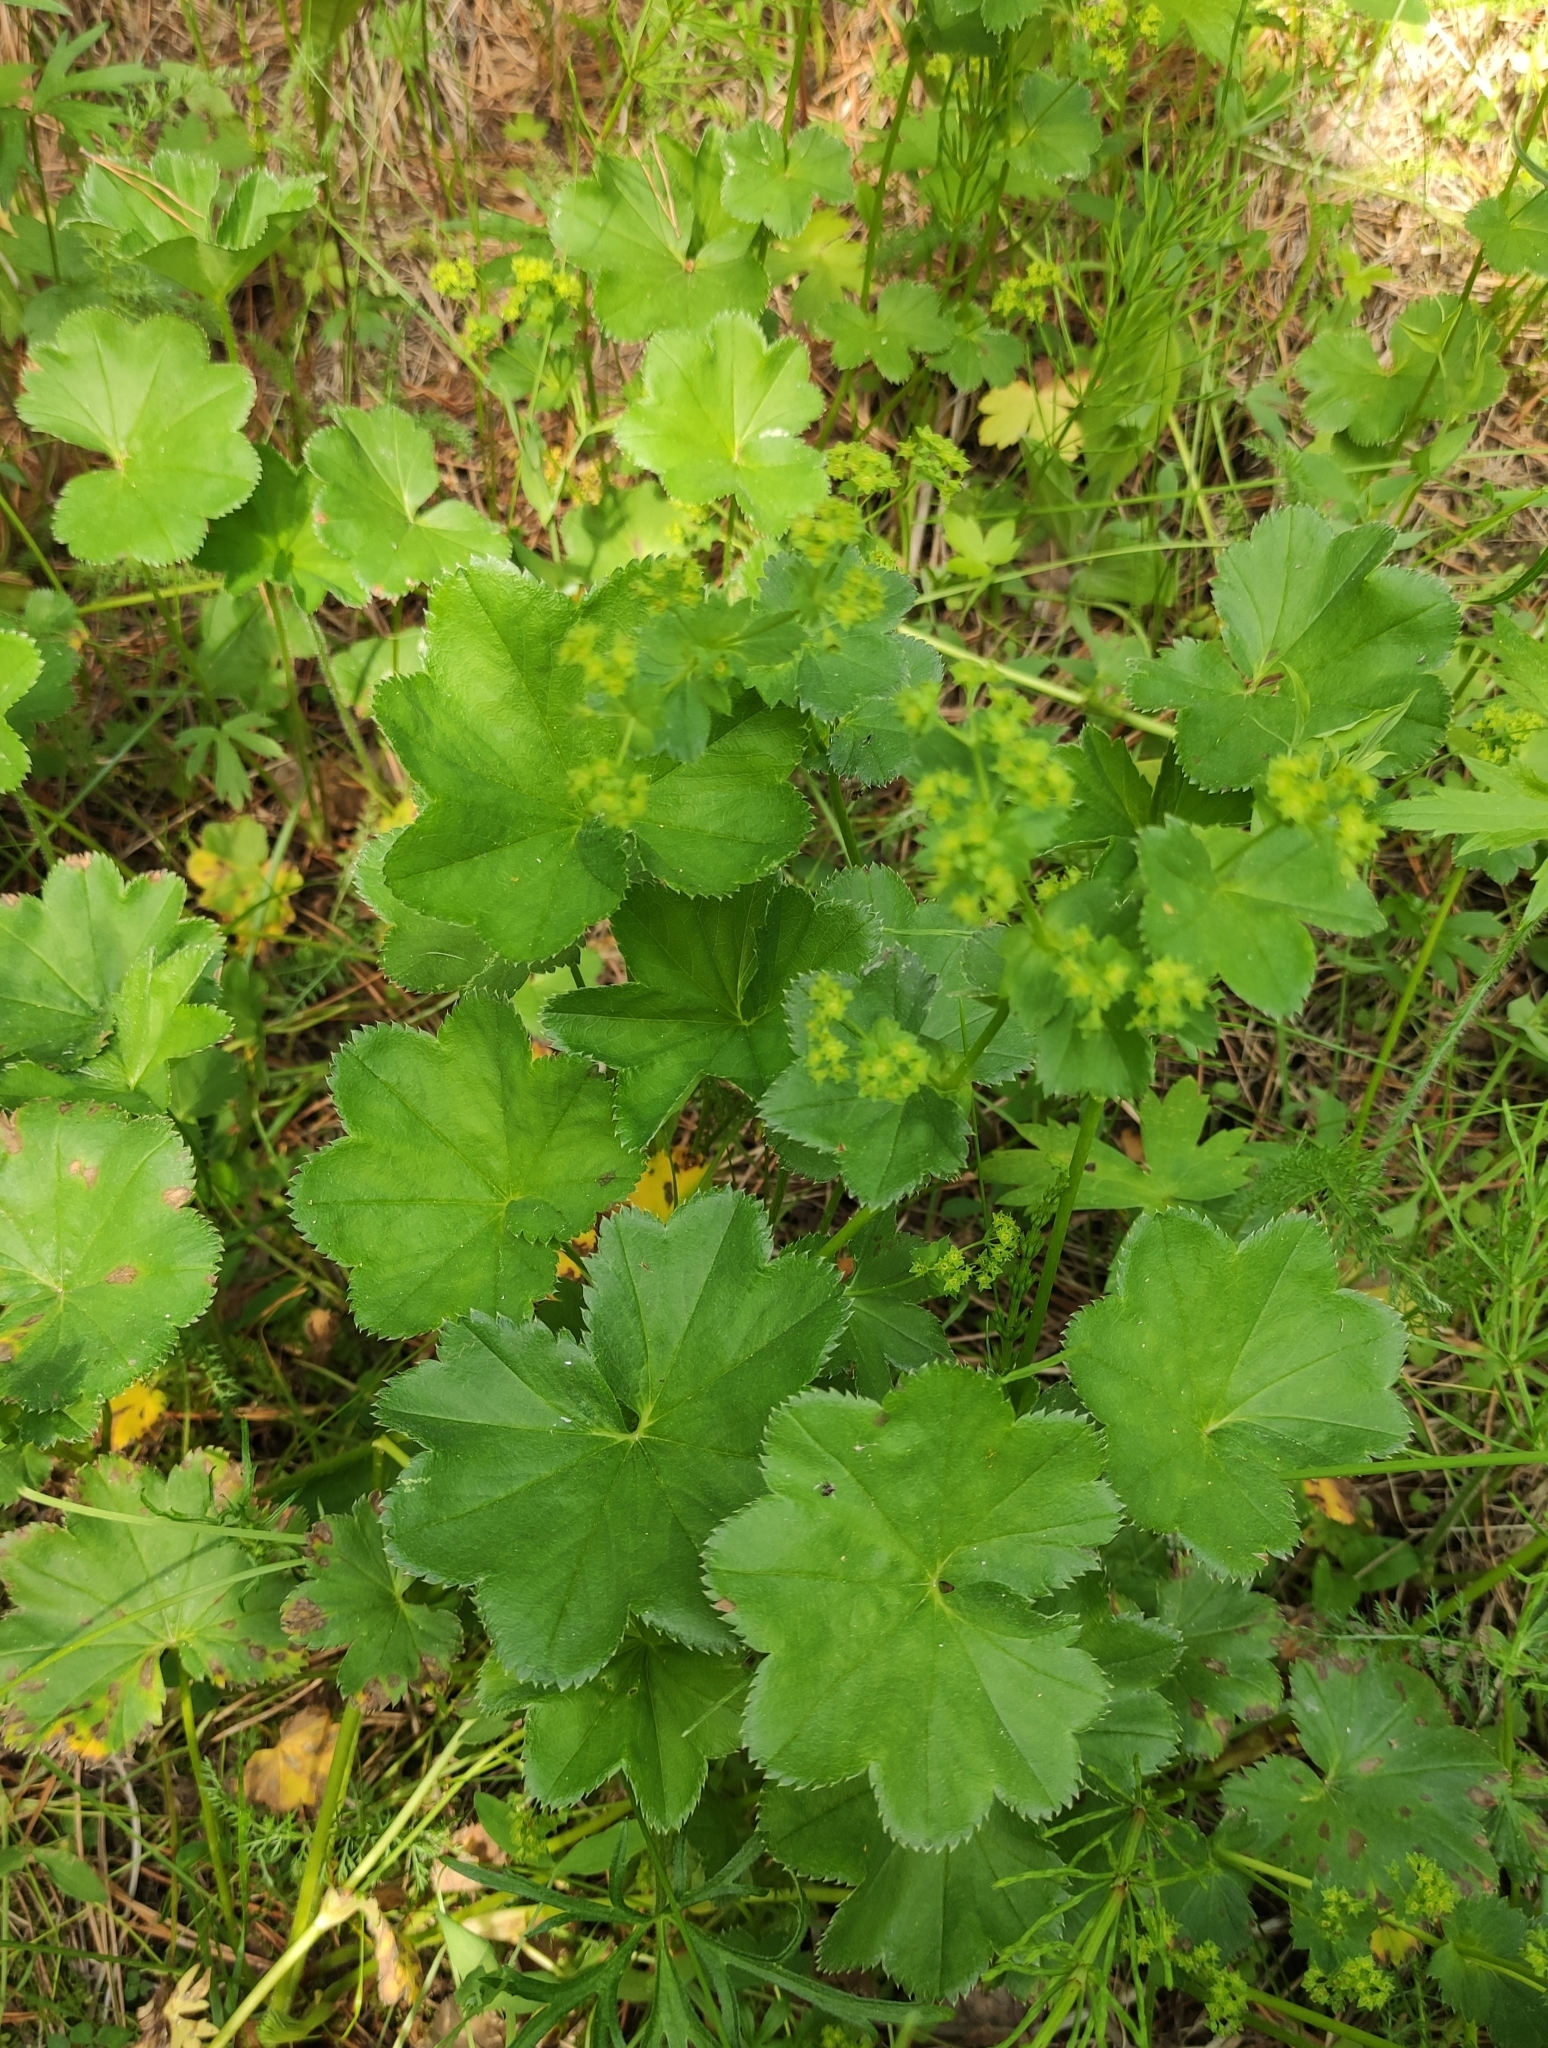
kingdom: Plantae
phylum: Tracheophyta
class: Magnoliopsida
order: Rosales
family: Rosaceae
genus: Alchemilla
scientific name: Alchemilla
